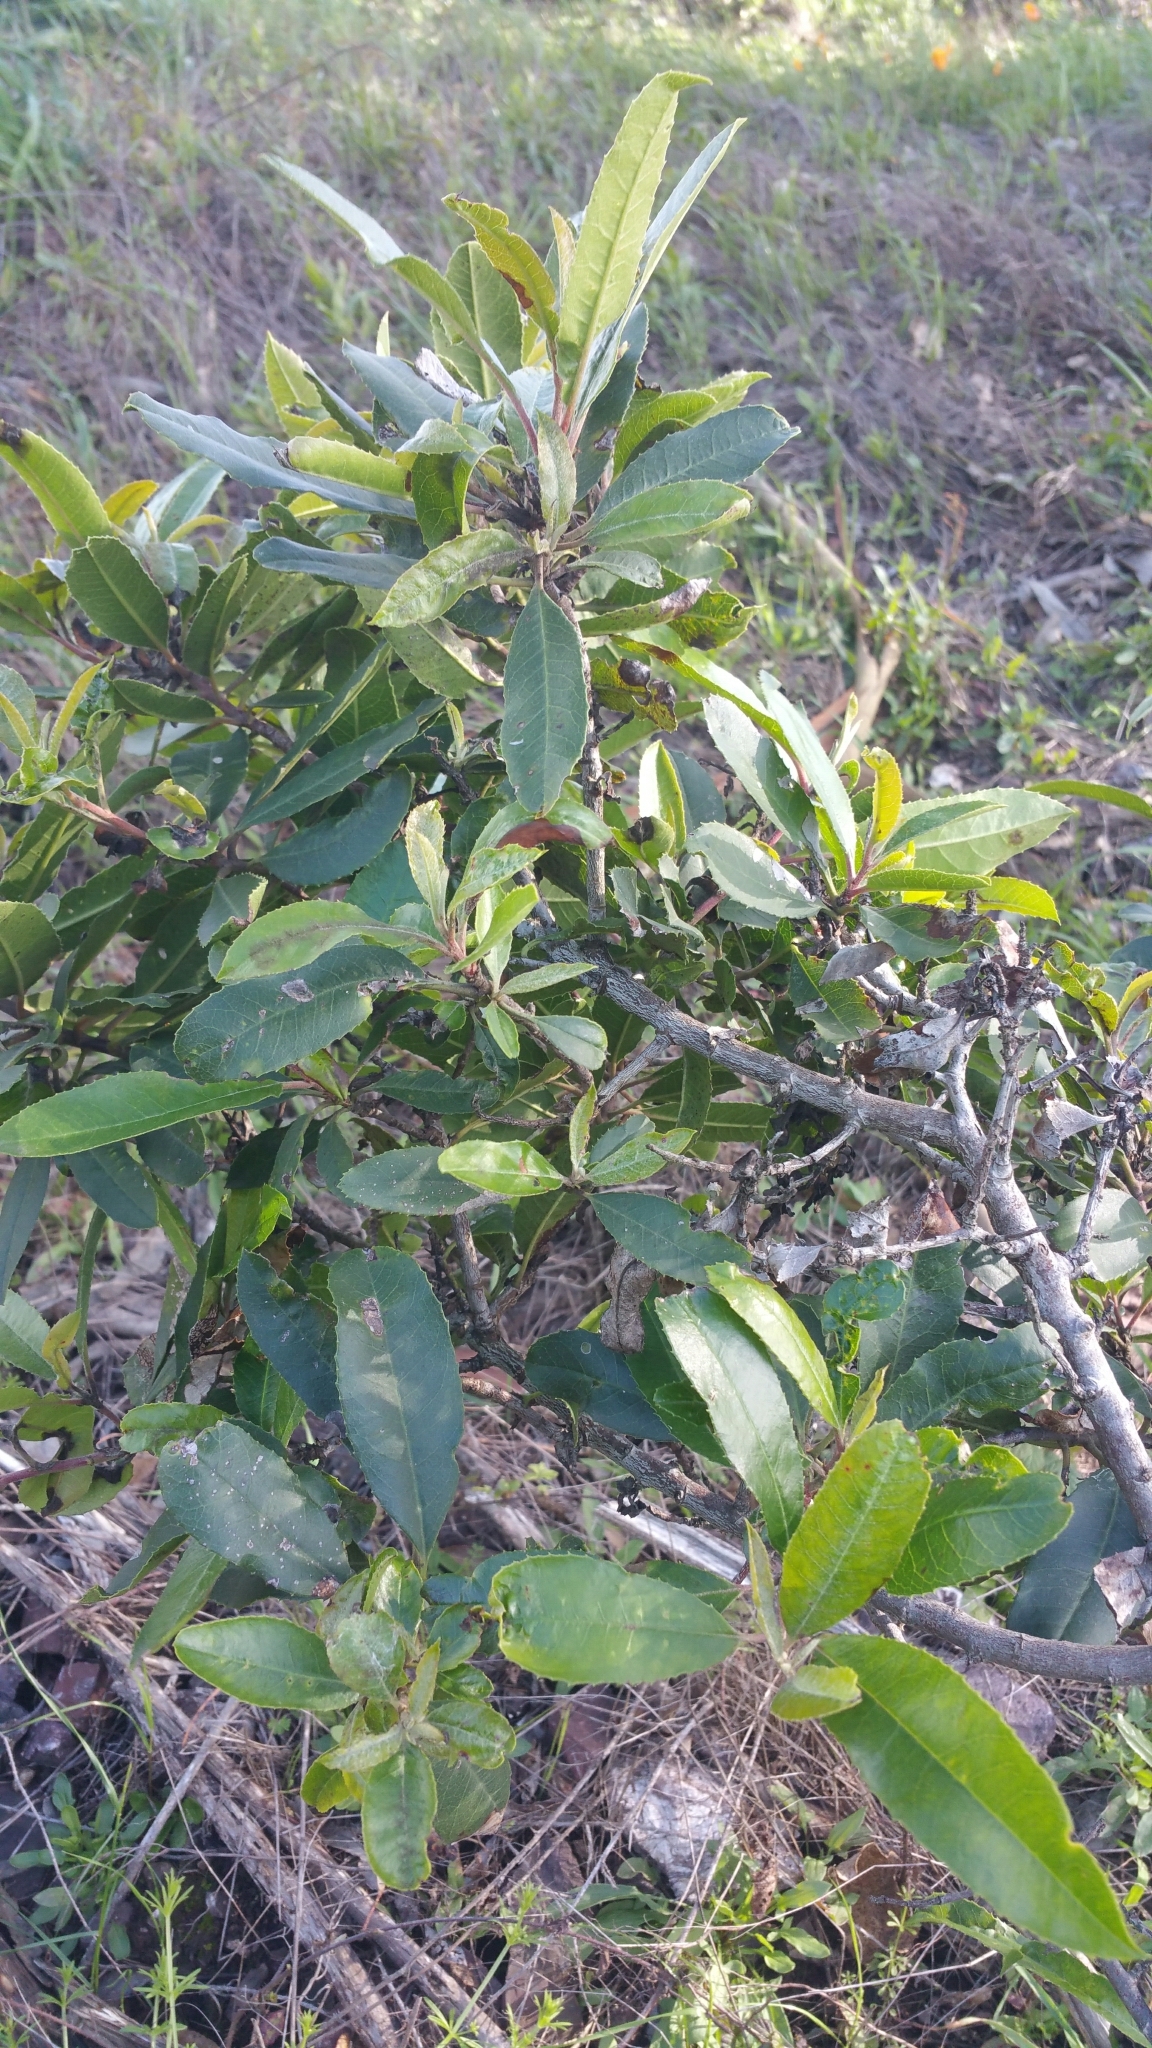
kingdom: Plantae
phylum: Tracheophyta
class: Magnoliopsida
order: Rosales
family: Rosaceae
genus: Heteromeles
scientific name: Heteromeles arbutifolia
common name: California-holly
